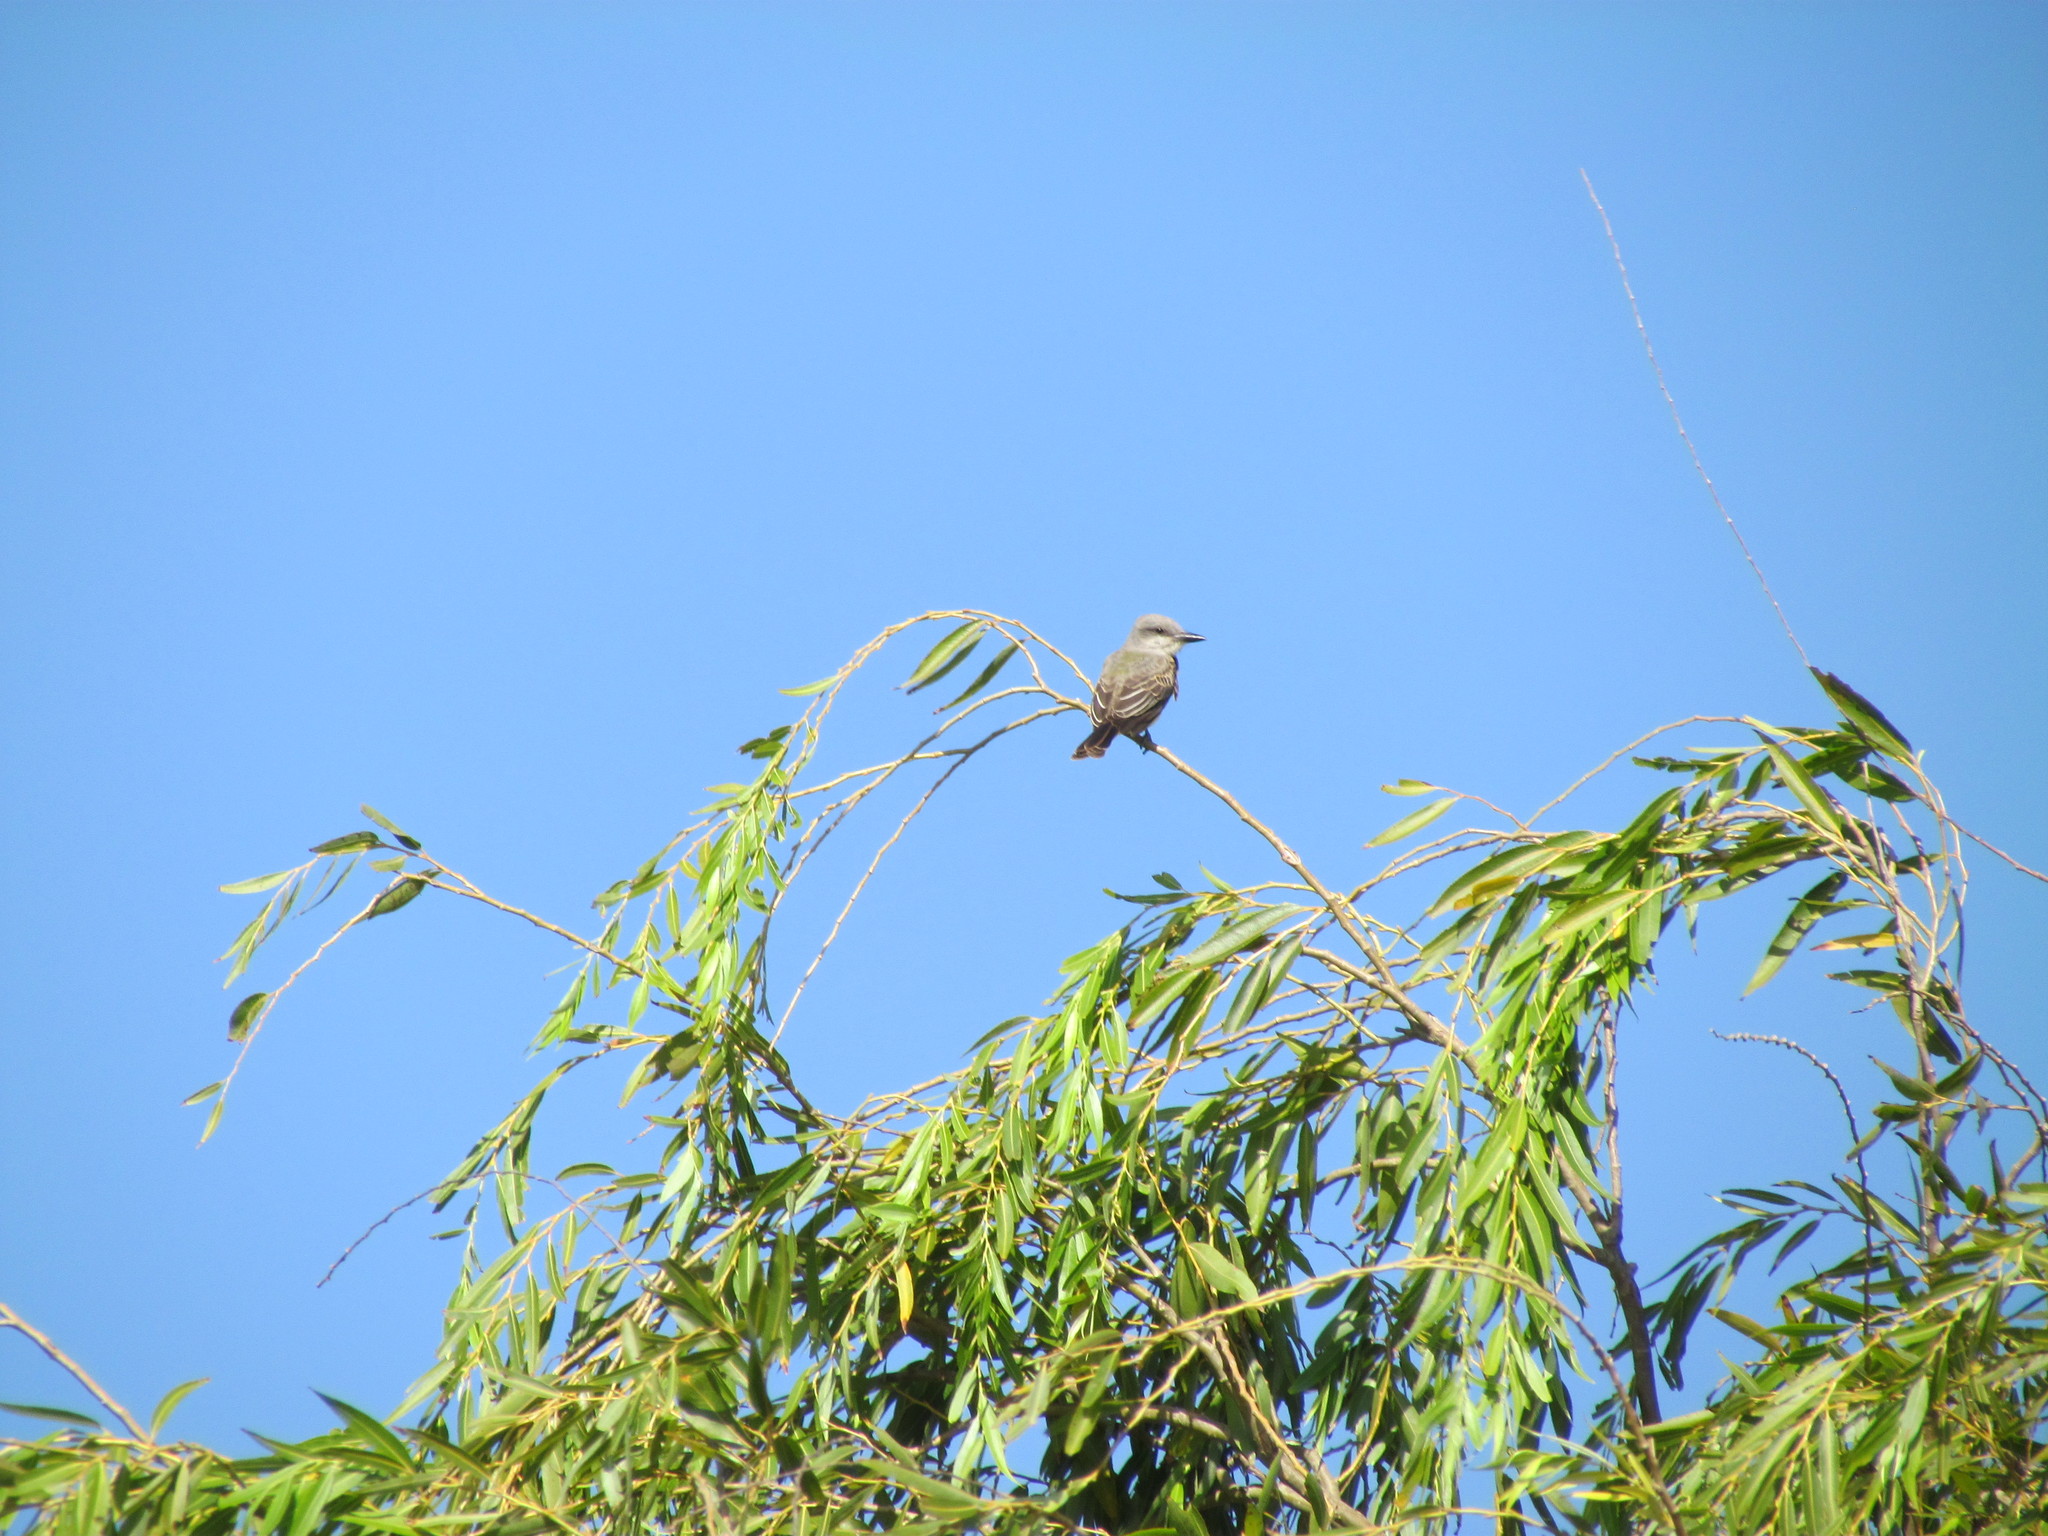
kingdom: Animalia
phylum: Chordata
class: Aves
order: Passeriformes
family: Tyrannidae
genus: Tyrannus
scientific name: Tyrannus melancholicus
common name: Tropical kingbird
